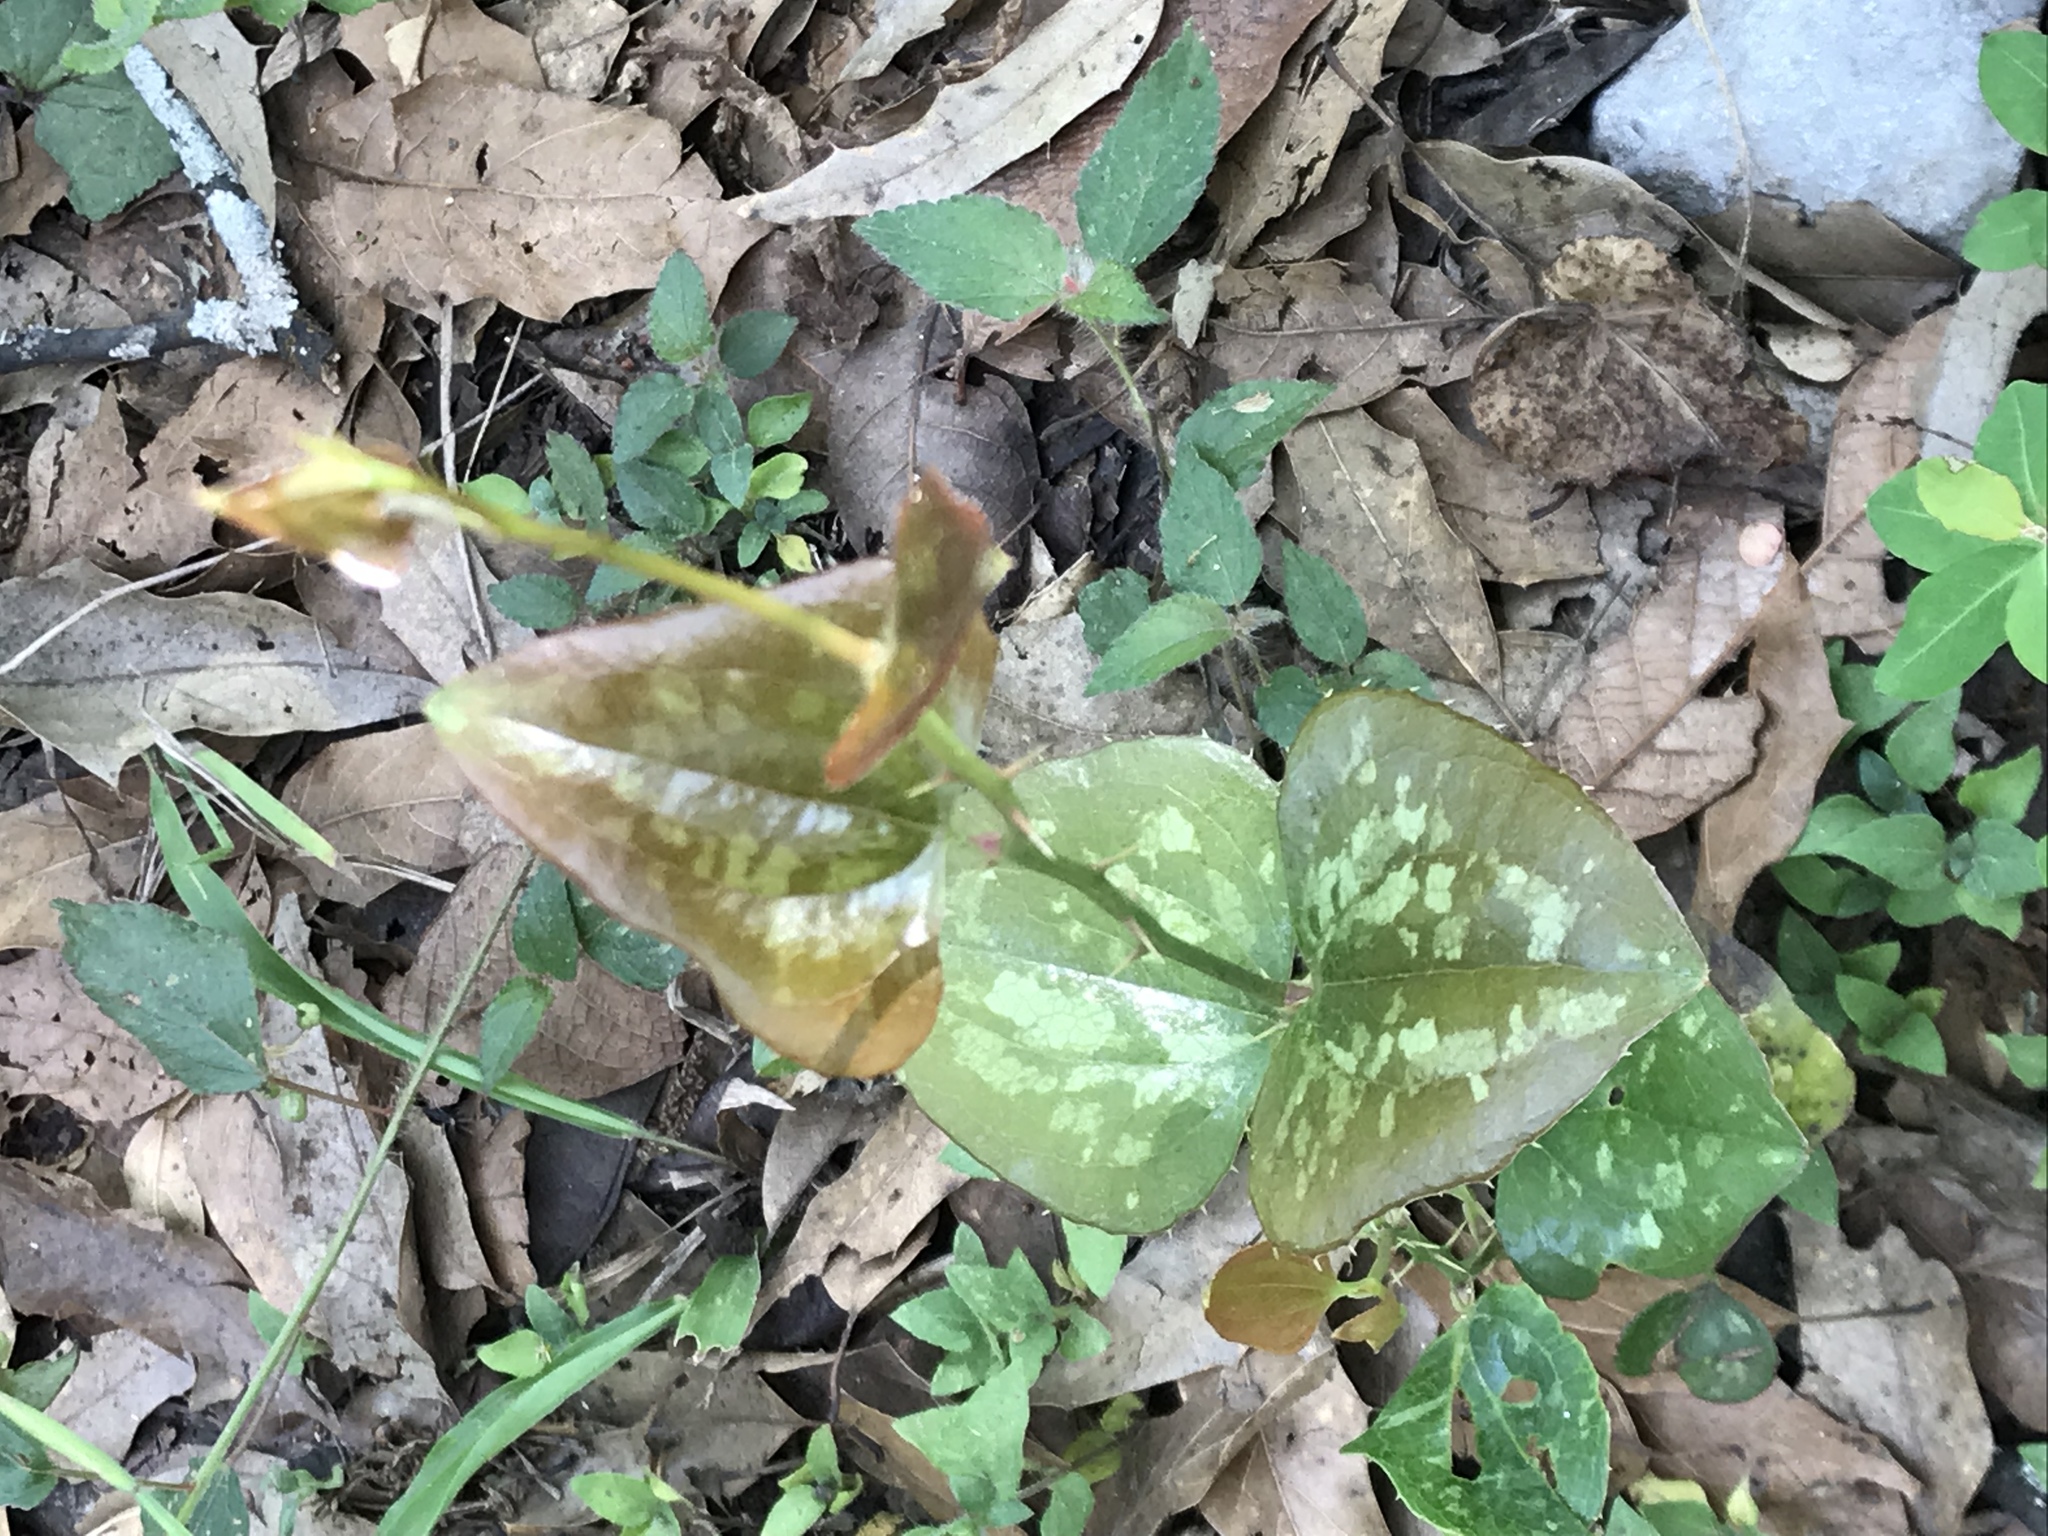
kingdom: Plantae
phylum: Tracheophyta
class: Liliopsida
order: Liliales
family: Smilacaceae
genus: Smilax
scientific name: Smilax bona-nox
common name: Catbrier
